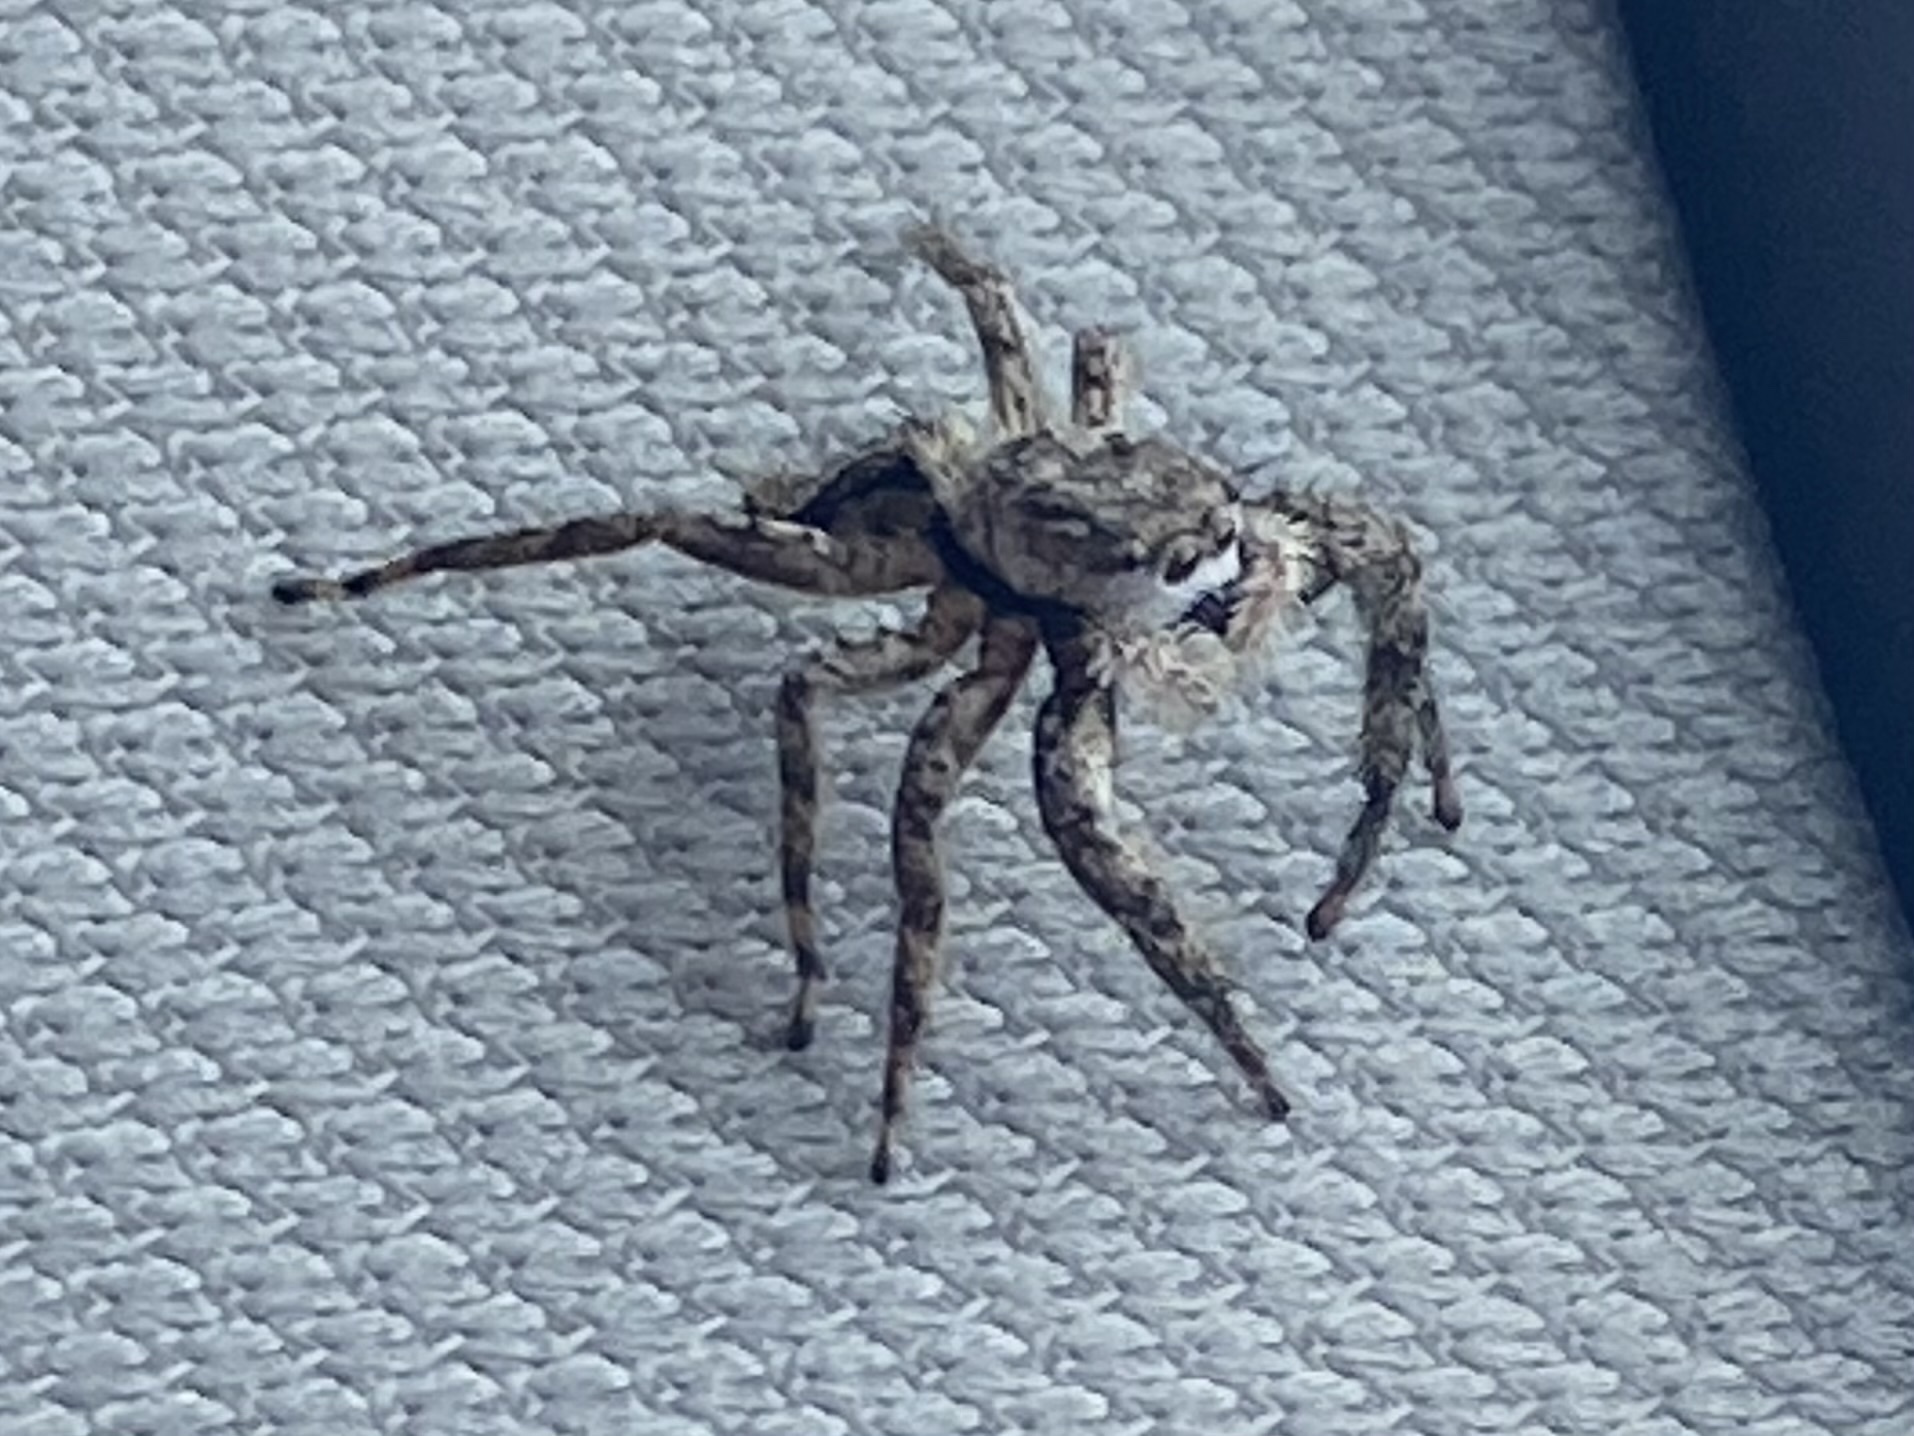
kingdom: Animalia
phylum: Arthropoda
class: Arachnida
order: Araneae
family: Salticidae
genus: Platycryptus
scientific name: Platycryptus undatus
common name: Tan jumping spider
